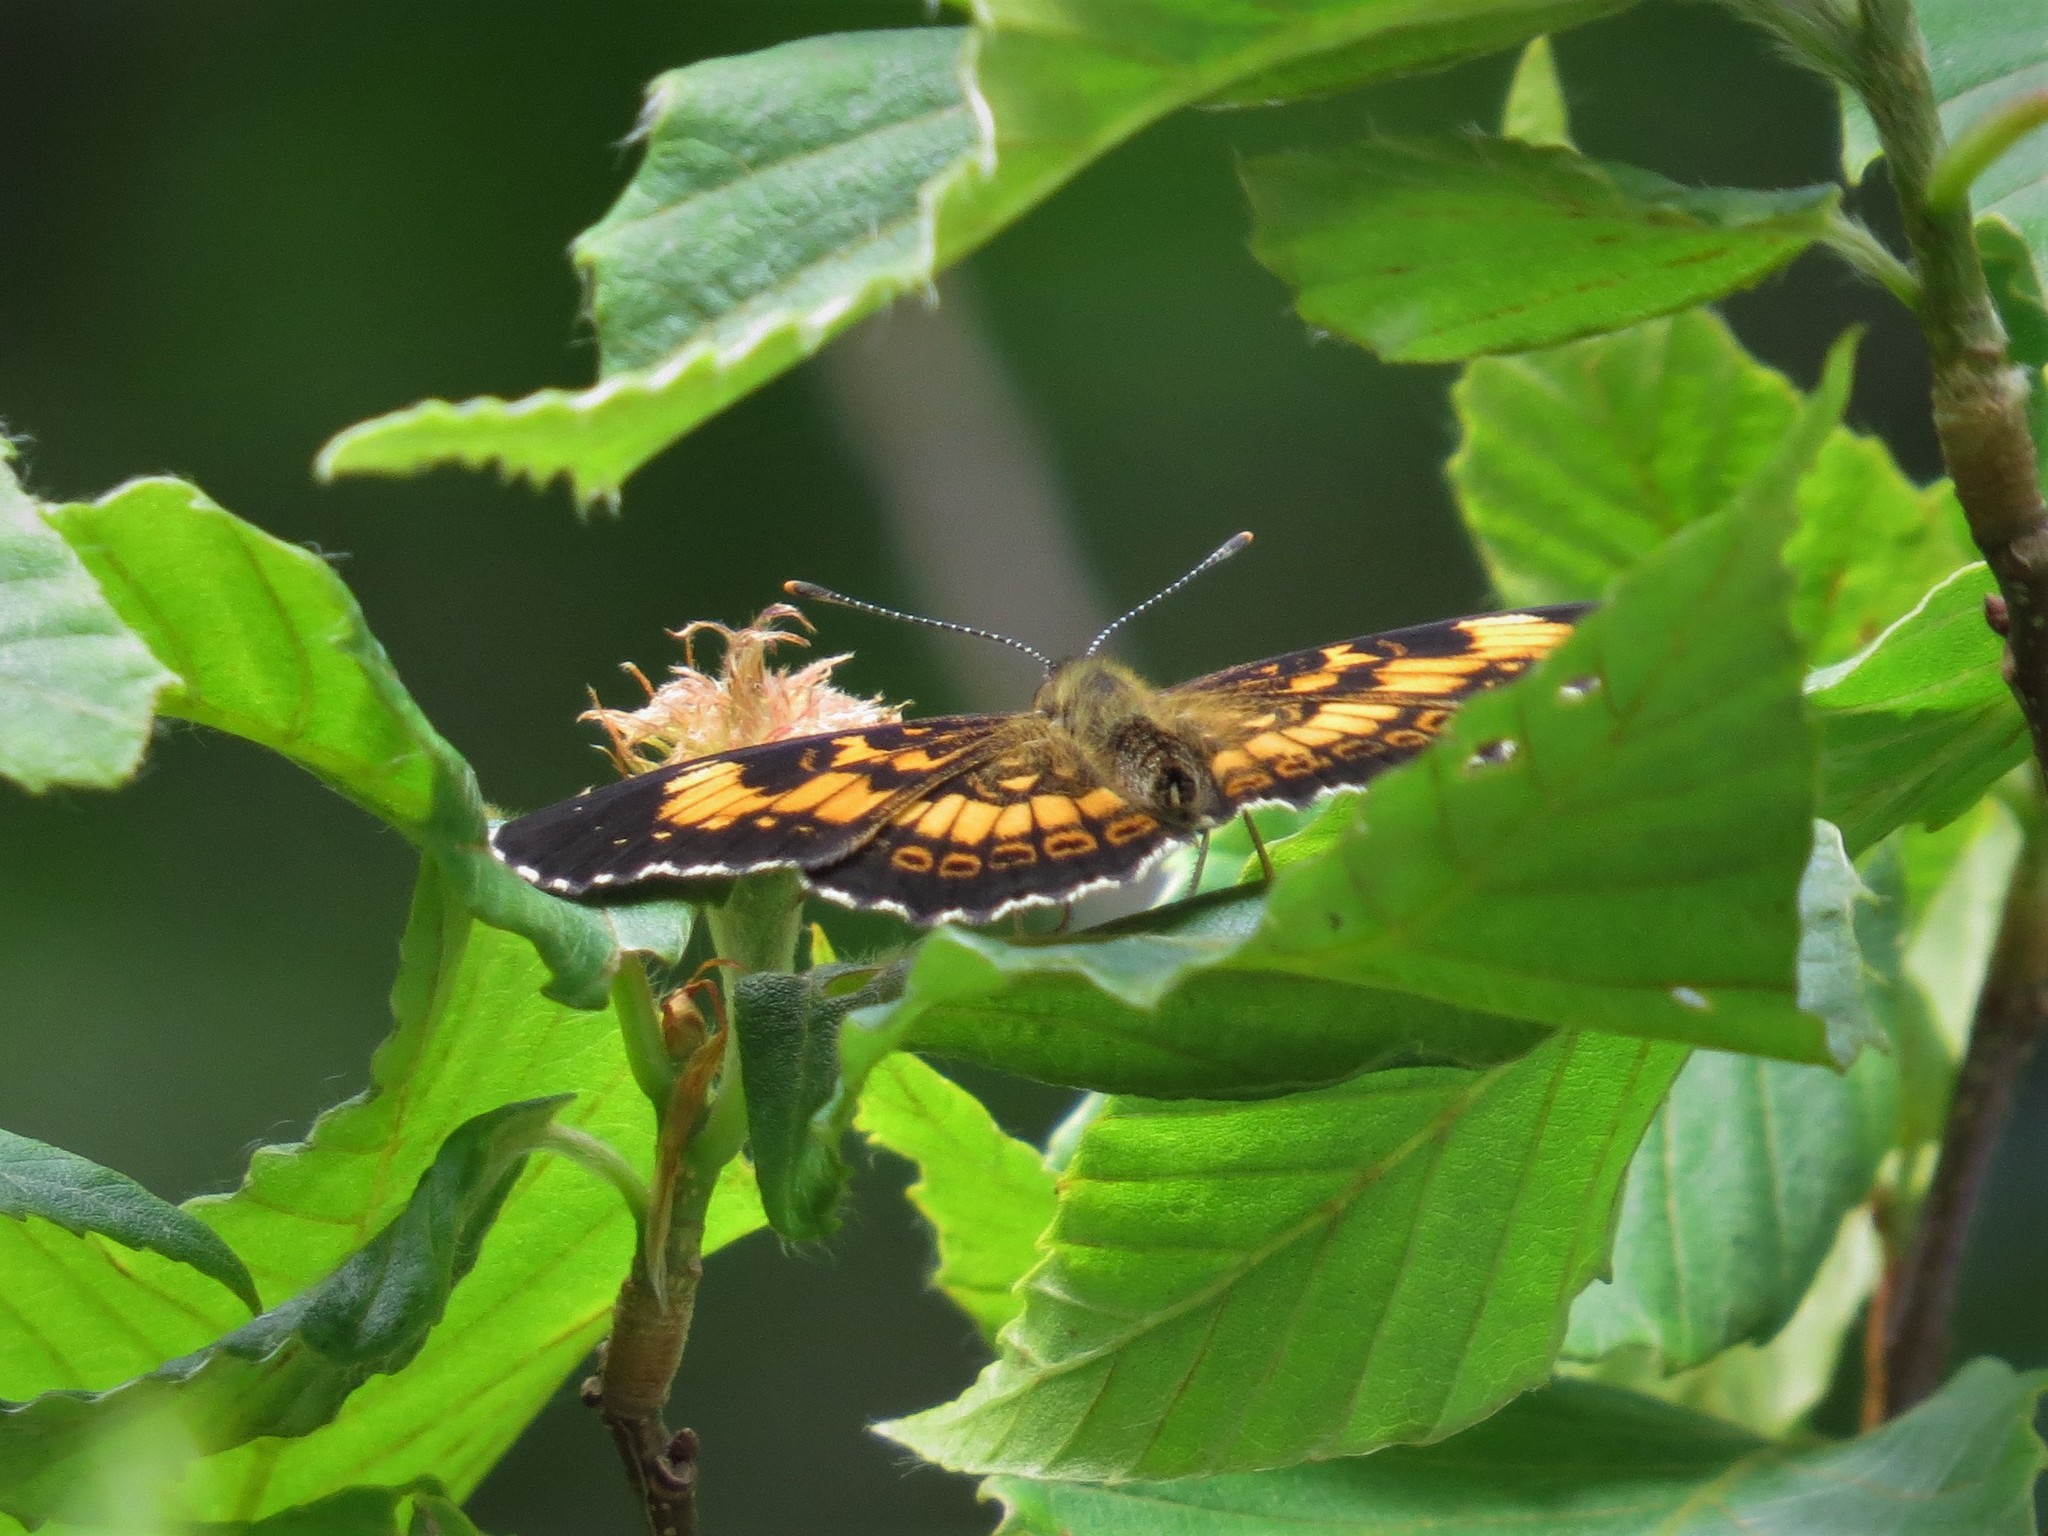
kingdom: Animalia
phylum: Arthropoda
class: Insecta
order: Lepidoptera
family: Nymphalidae
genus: Chlosyne
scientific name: Chlosyne nycteis
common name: Silvery checkerspot
